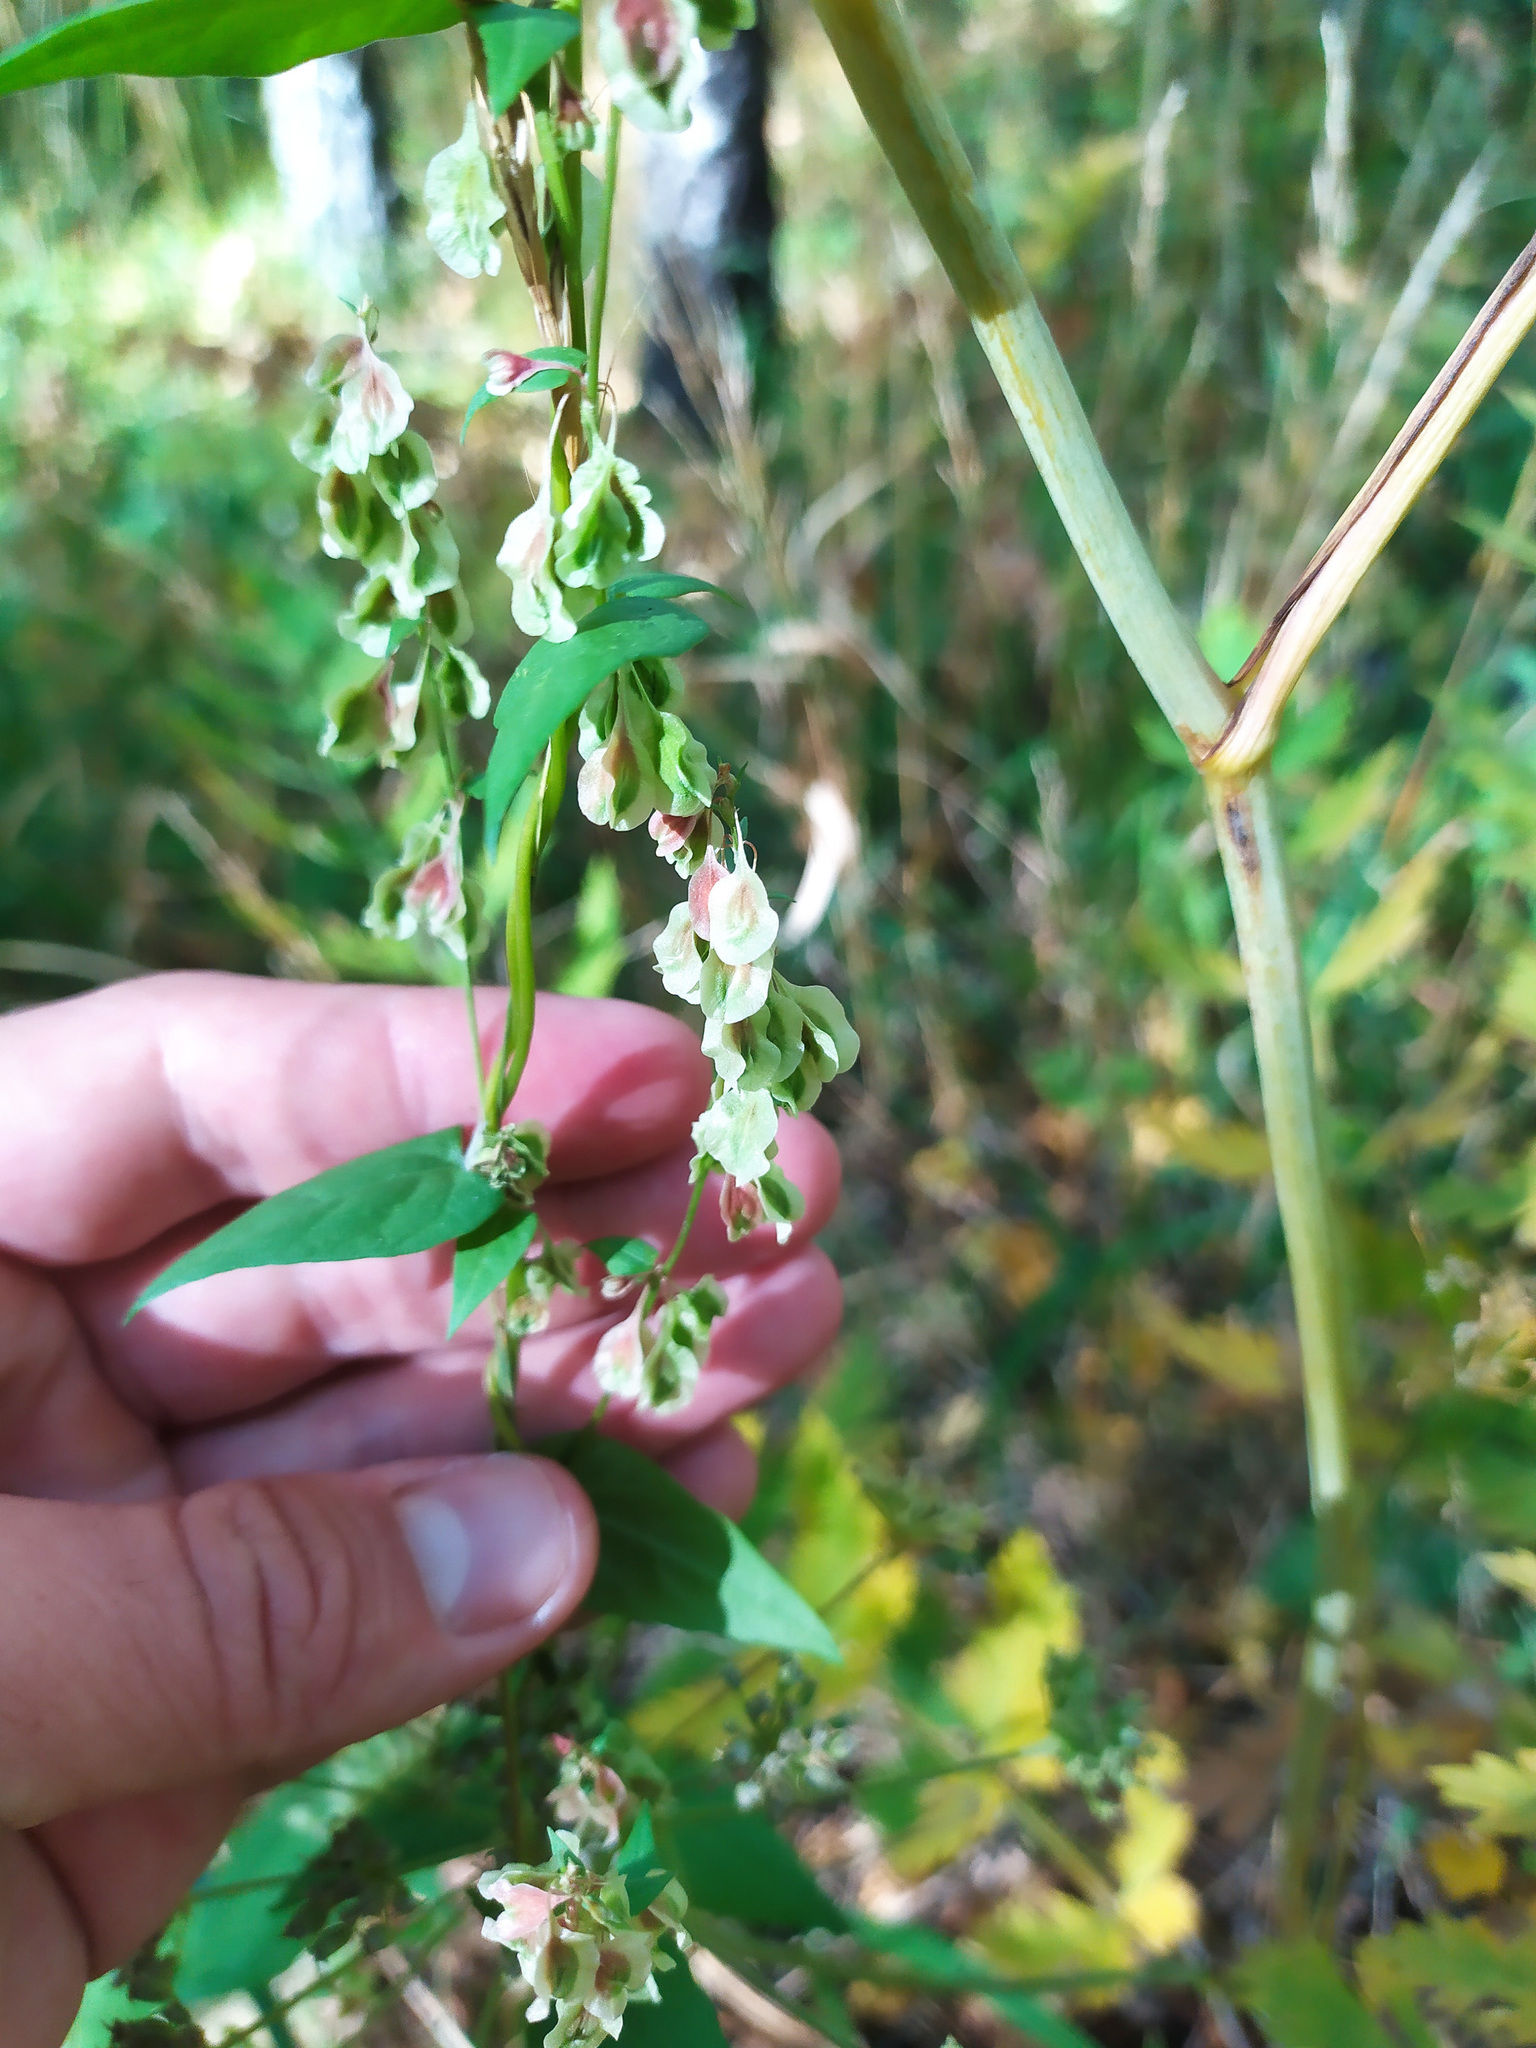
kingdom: Plantae
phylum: Tracheophyta
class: Magnoliopsida
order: Caryophyllales
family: Polygonaceae
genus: Fallopia
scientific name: Fallopia dumetorum
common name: Copse-bindweed
